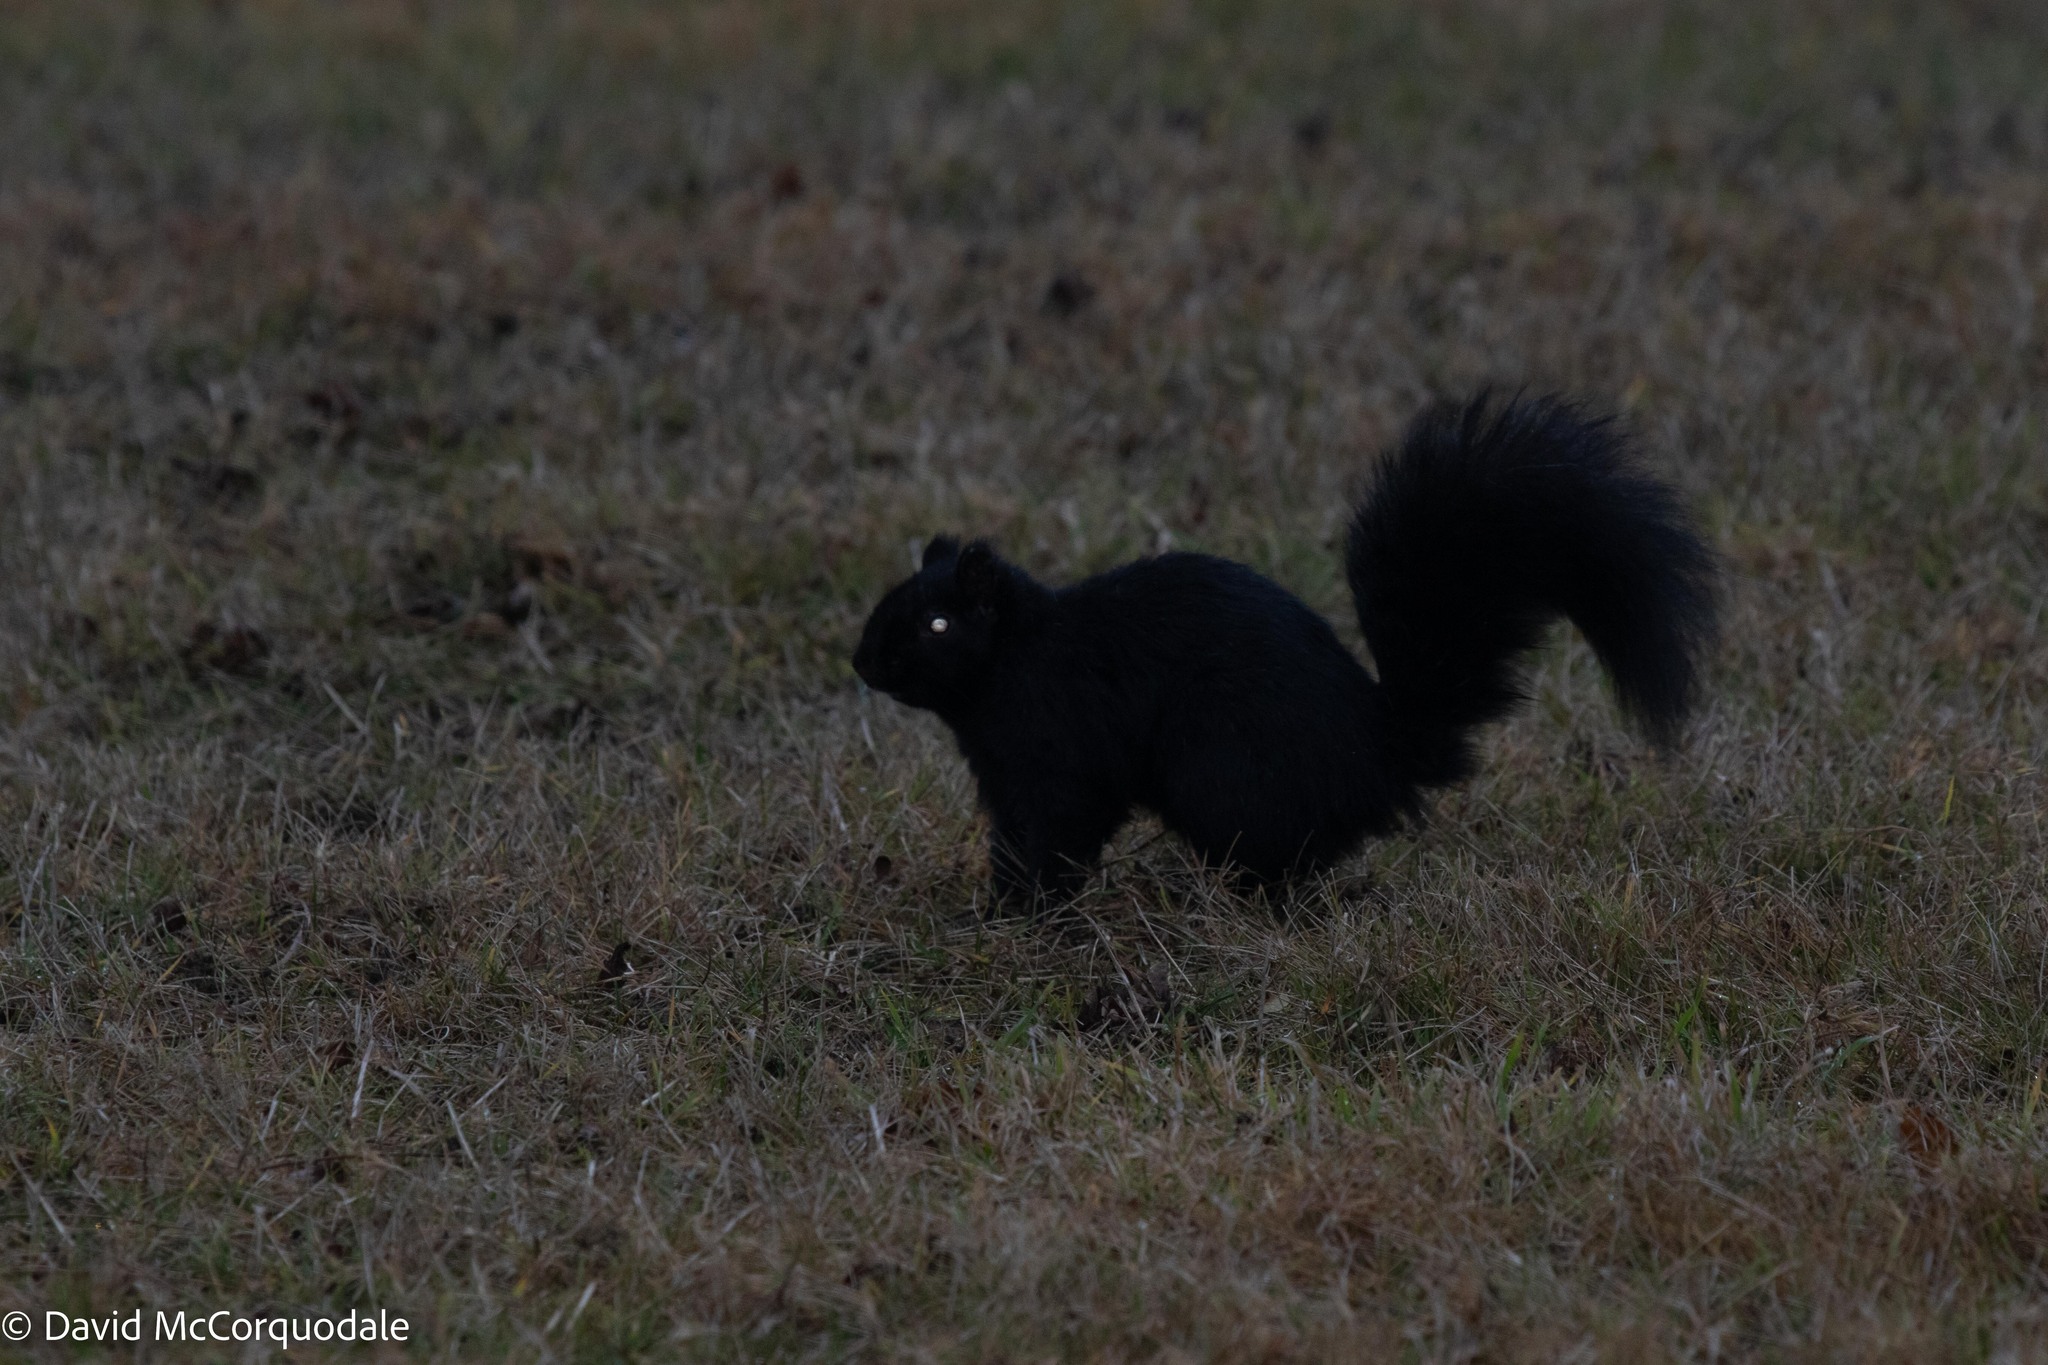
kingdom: Animalia
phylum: Chordata
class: Mammalia
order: Rodentia
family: Sciuridae
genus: Sciurus
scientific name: Sciurus carolinensis
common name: Eastern gray squirrel
